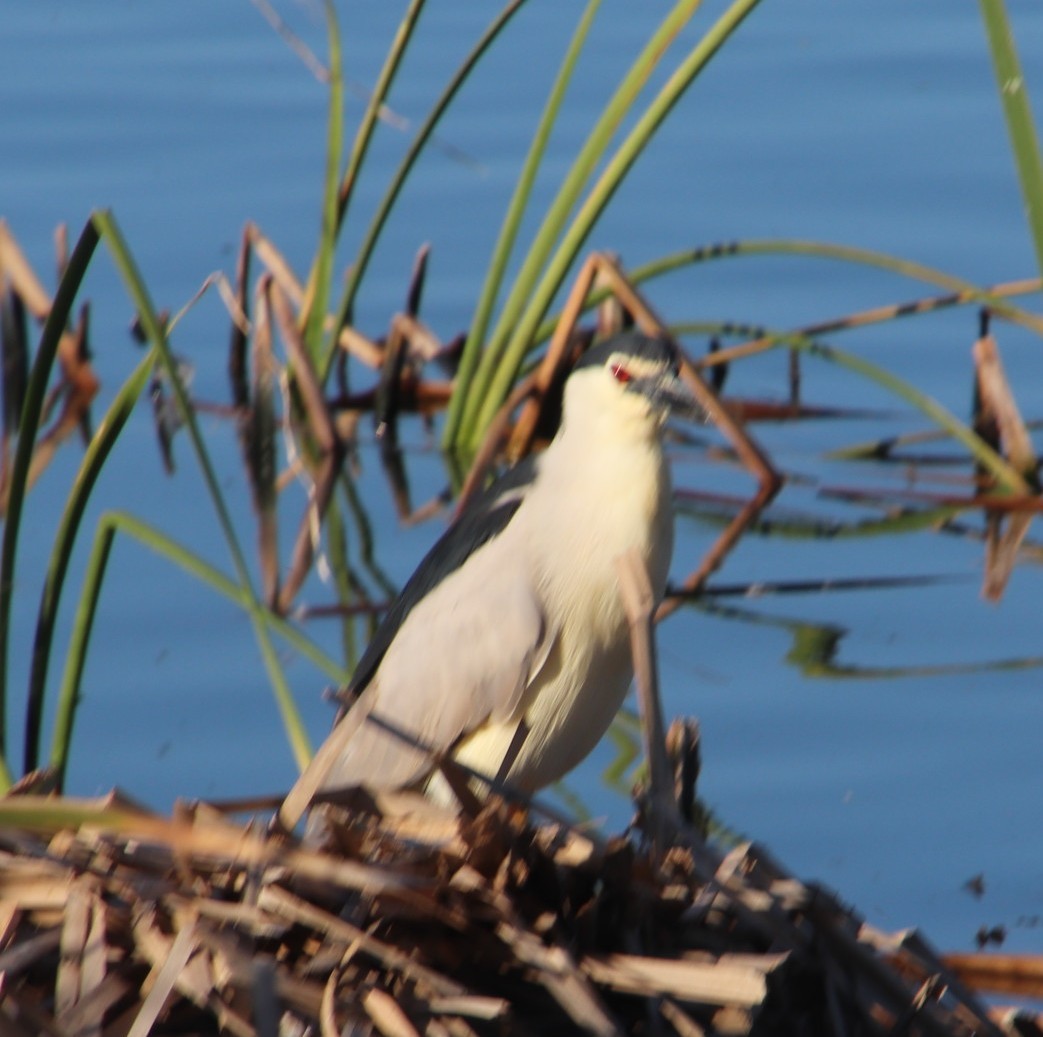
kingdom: Animalia
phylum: Chordata
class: Aves
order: Pelecaniformes
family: Ardeidae
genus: Nycticorax
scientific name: Nycticorax nycticorax
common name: Black-crowned night heron
